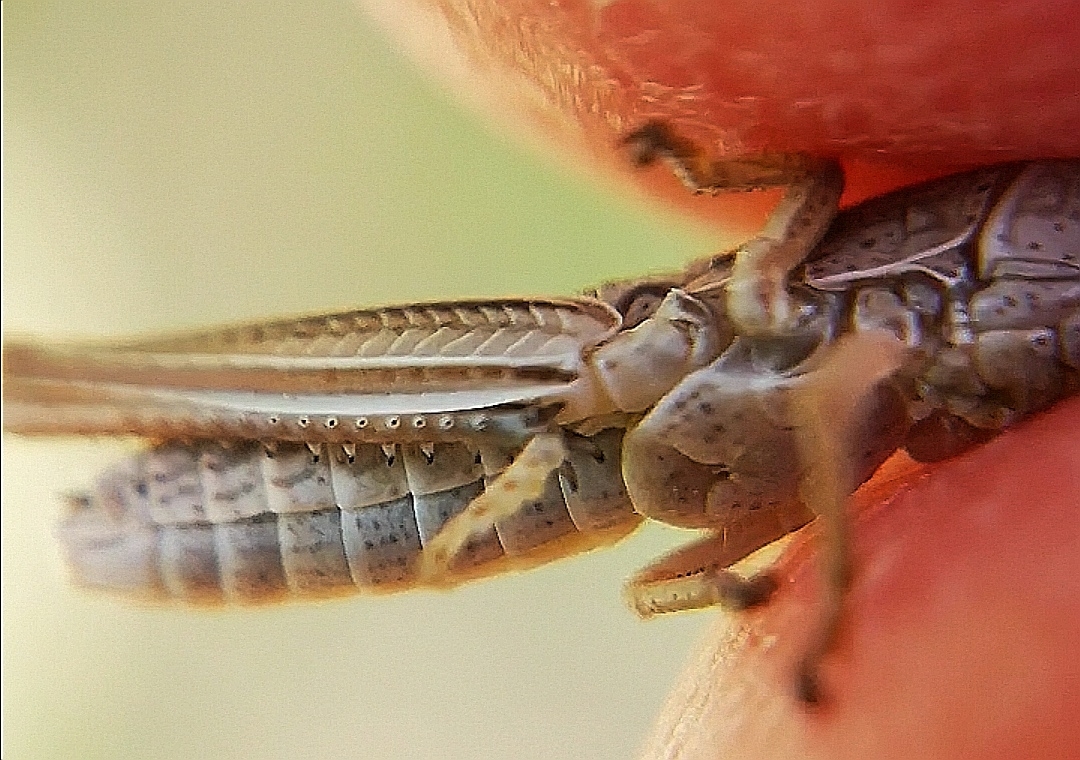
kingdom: Animalia
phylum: Arthropoda
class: Insecta
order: Orthoptera
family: Acrididae
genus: Chrysochraon
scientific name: Chrysochraon dispar
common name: Large gold grasshopper
